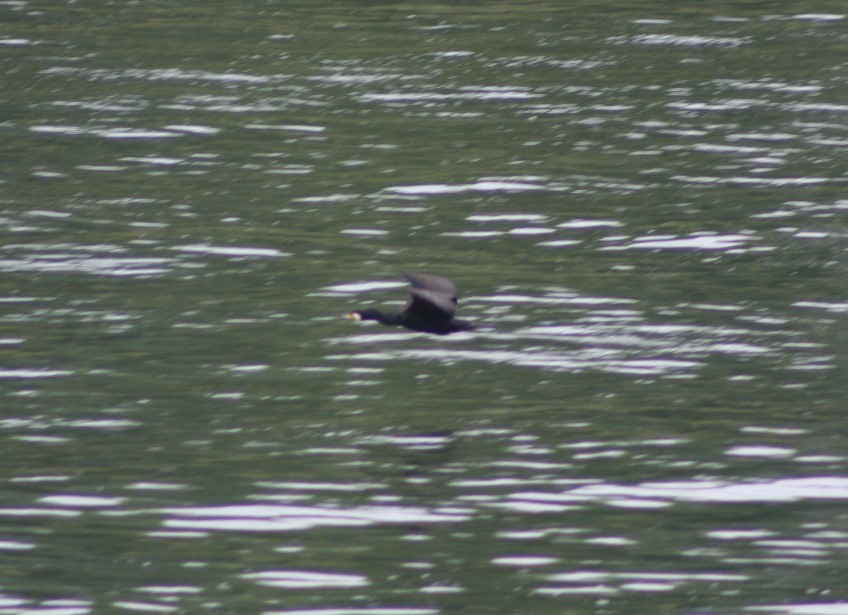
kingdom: Animalia
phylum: Chordata
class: Aves
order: Suliformes
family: Phalacrocoracidae
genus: Phalacrocorax
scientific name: Phalacrocorax carbo
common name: Great cormorant
